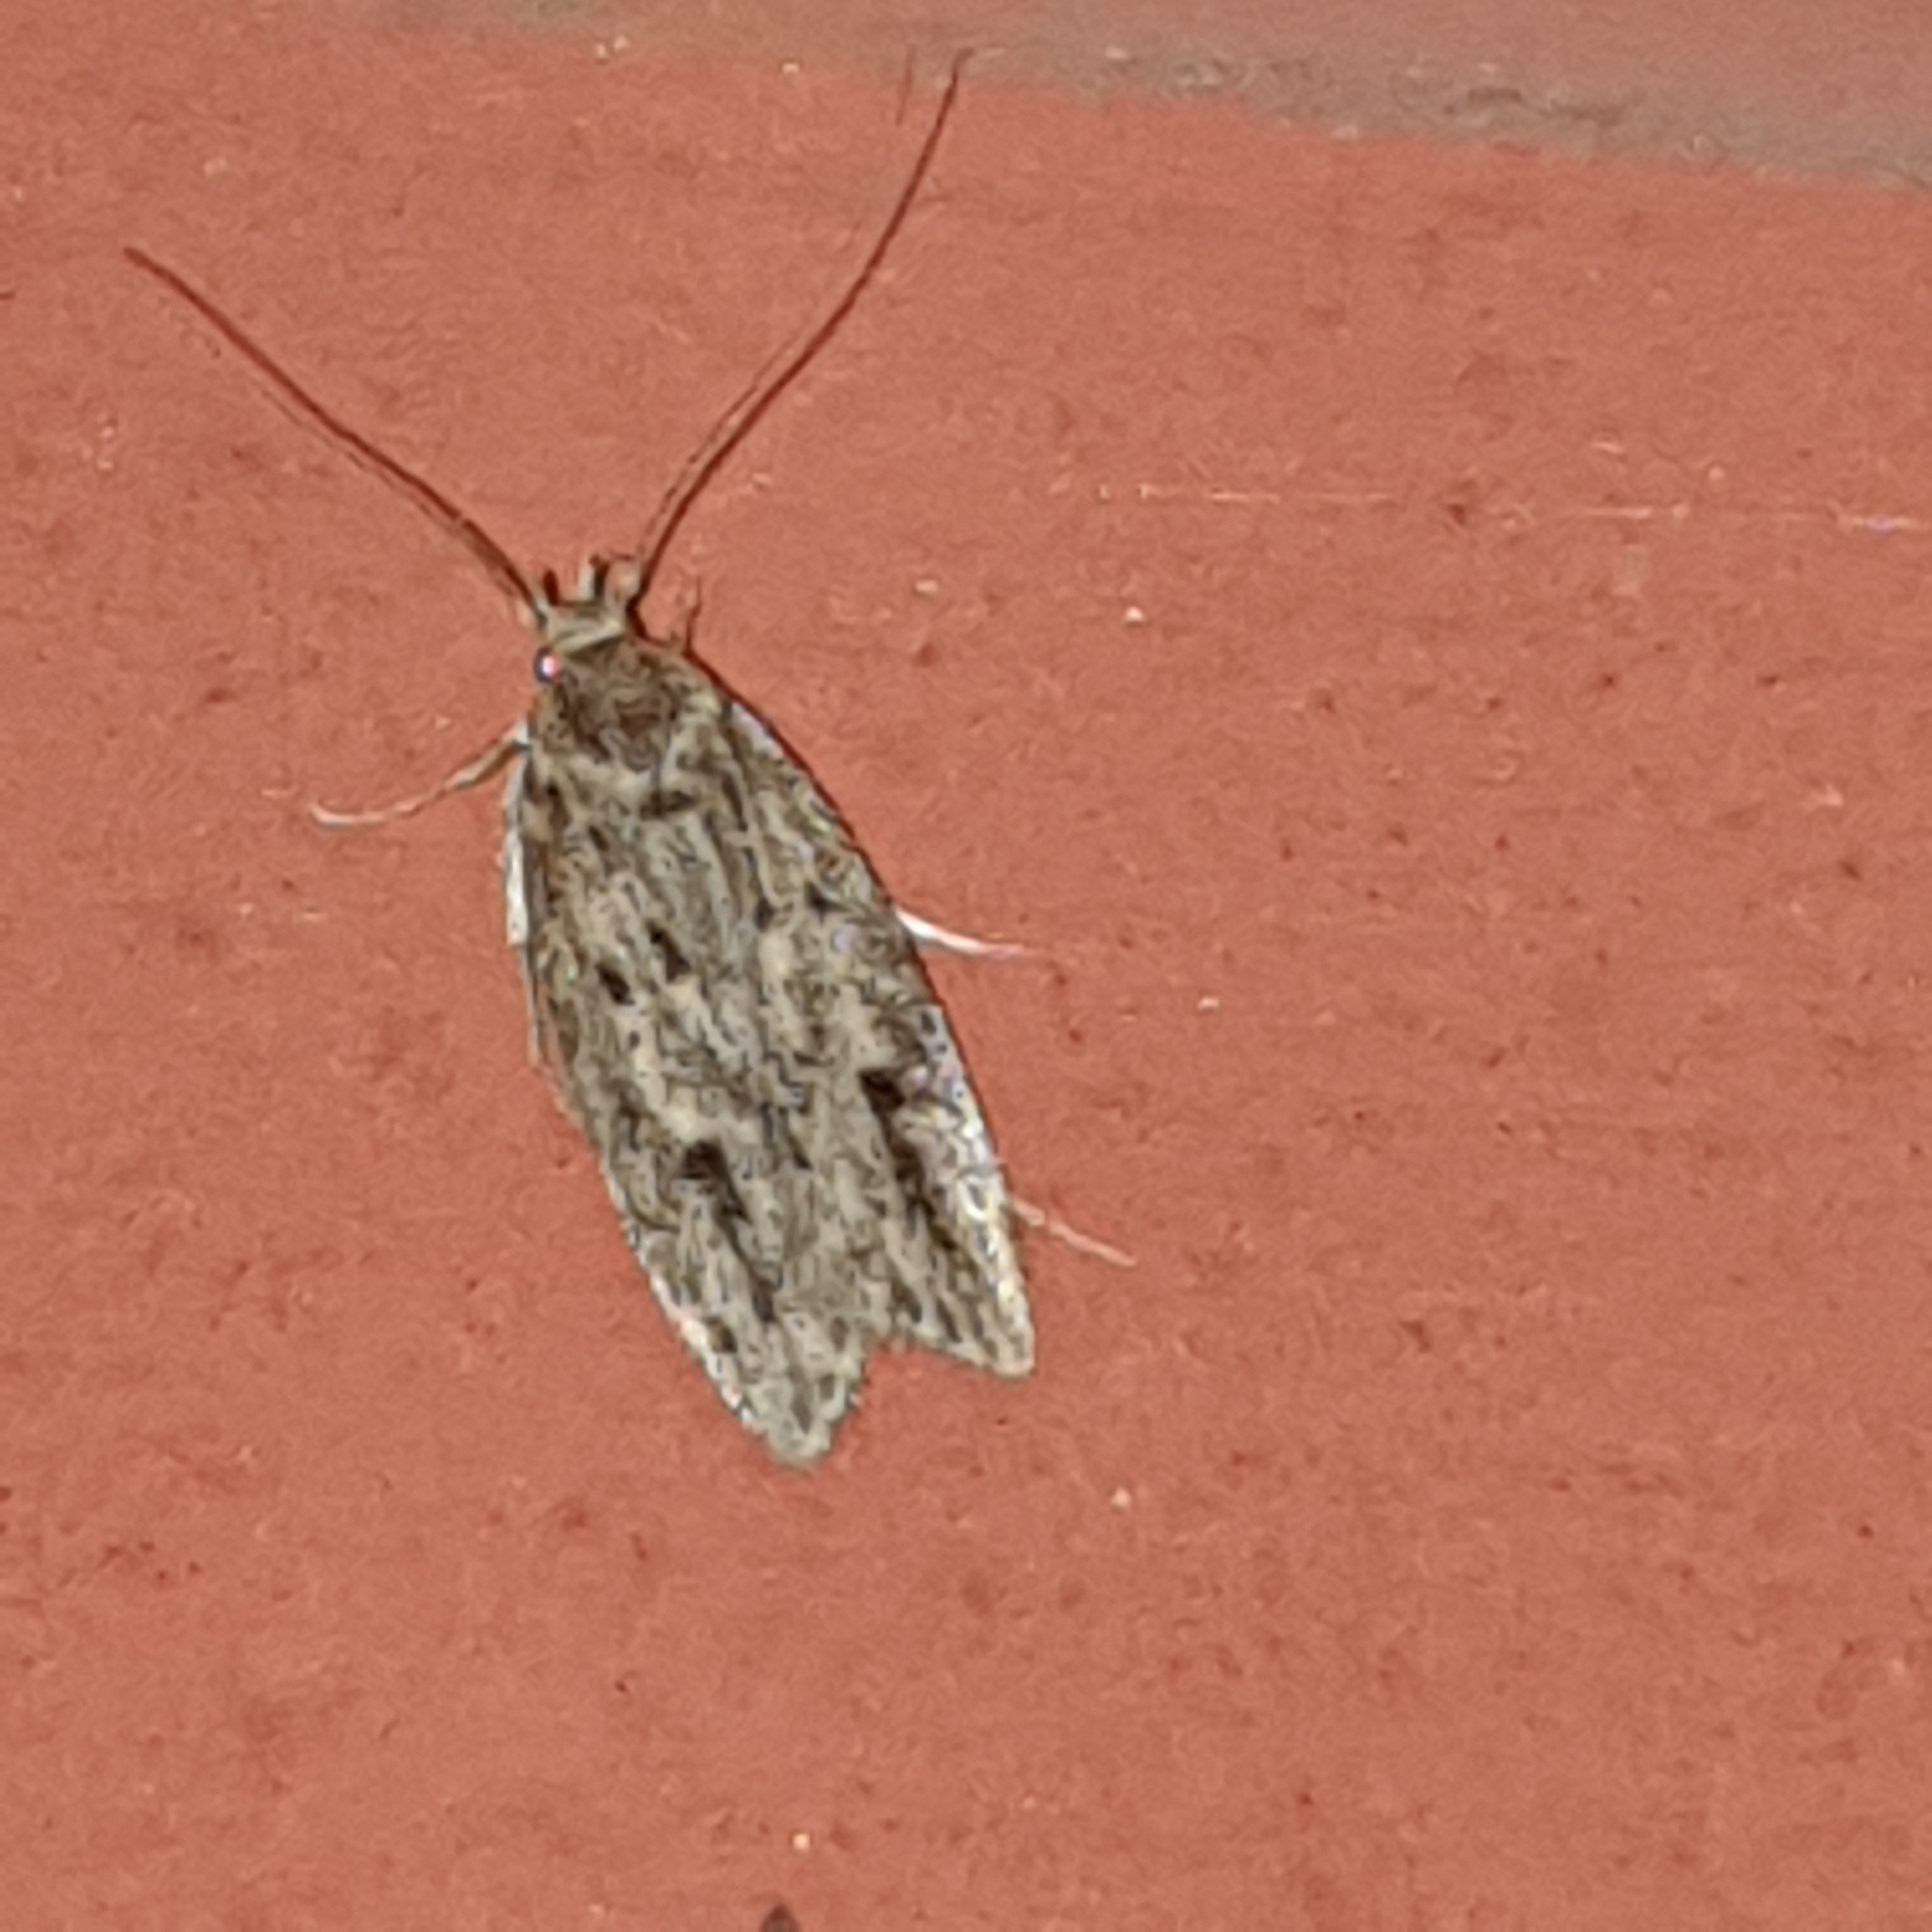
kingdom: Animalia
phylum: Arthropoda
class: Insecta
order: Lepidoptera
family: Oecophoridae
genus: Hofmannophila
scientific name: Hofmannophila pseudospretella
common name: Brown house moth
